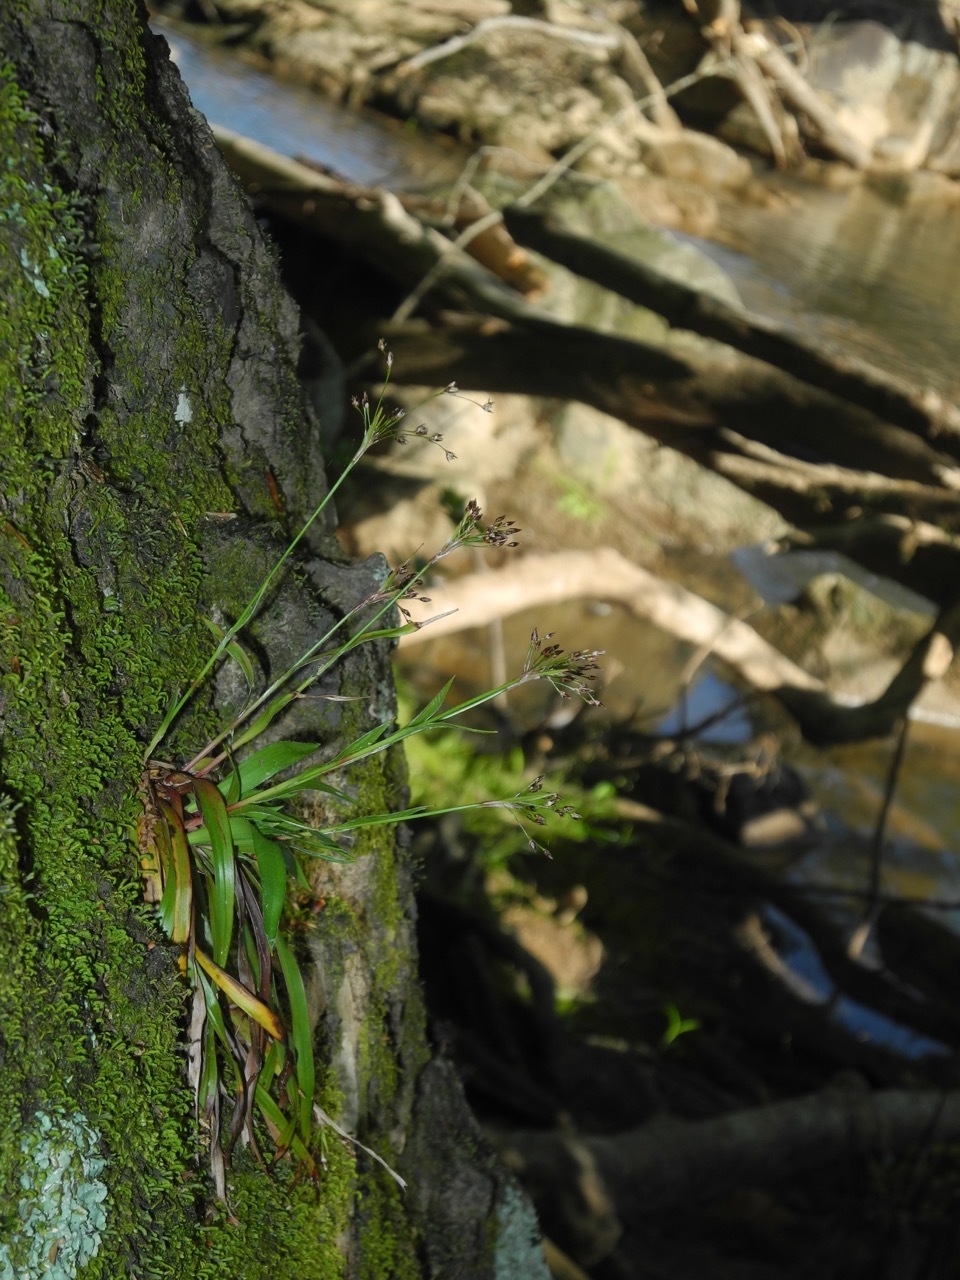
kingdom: Plantae
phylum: Tracheophyta
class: Liliopsida
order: Poales
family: Juncaceae
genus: Luzula
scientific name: Luzula acuminata
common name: Hairy woodrush
